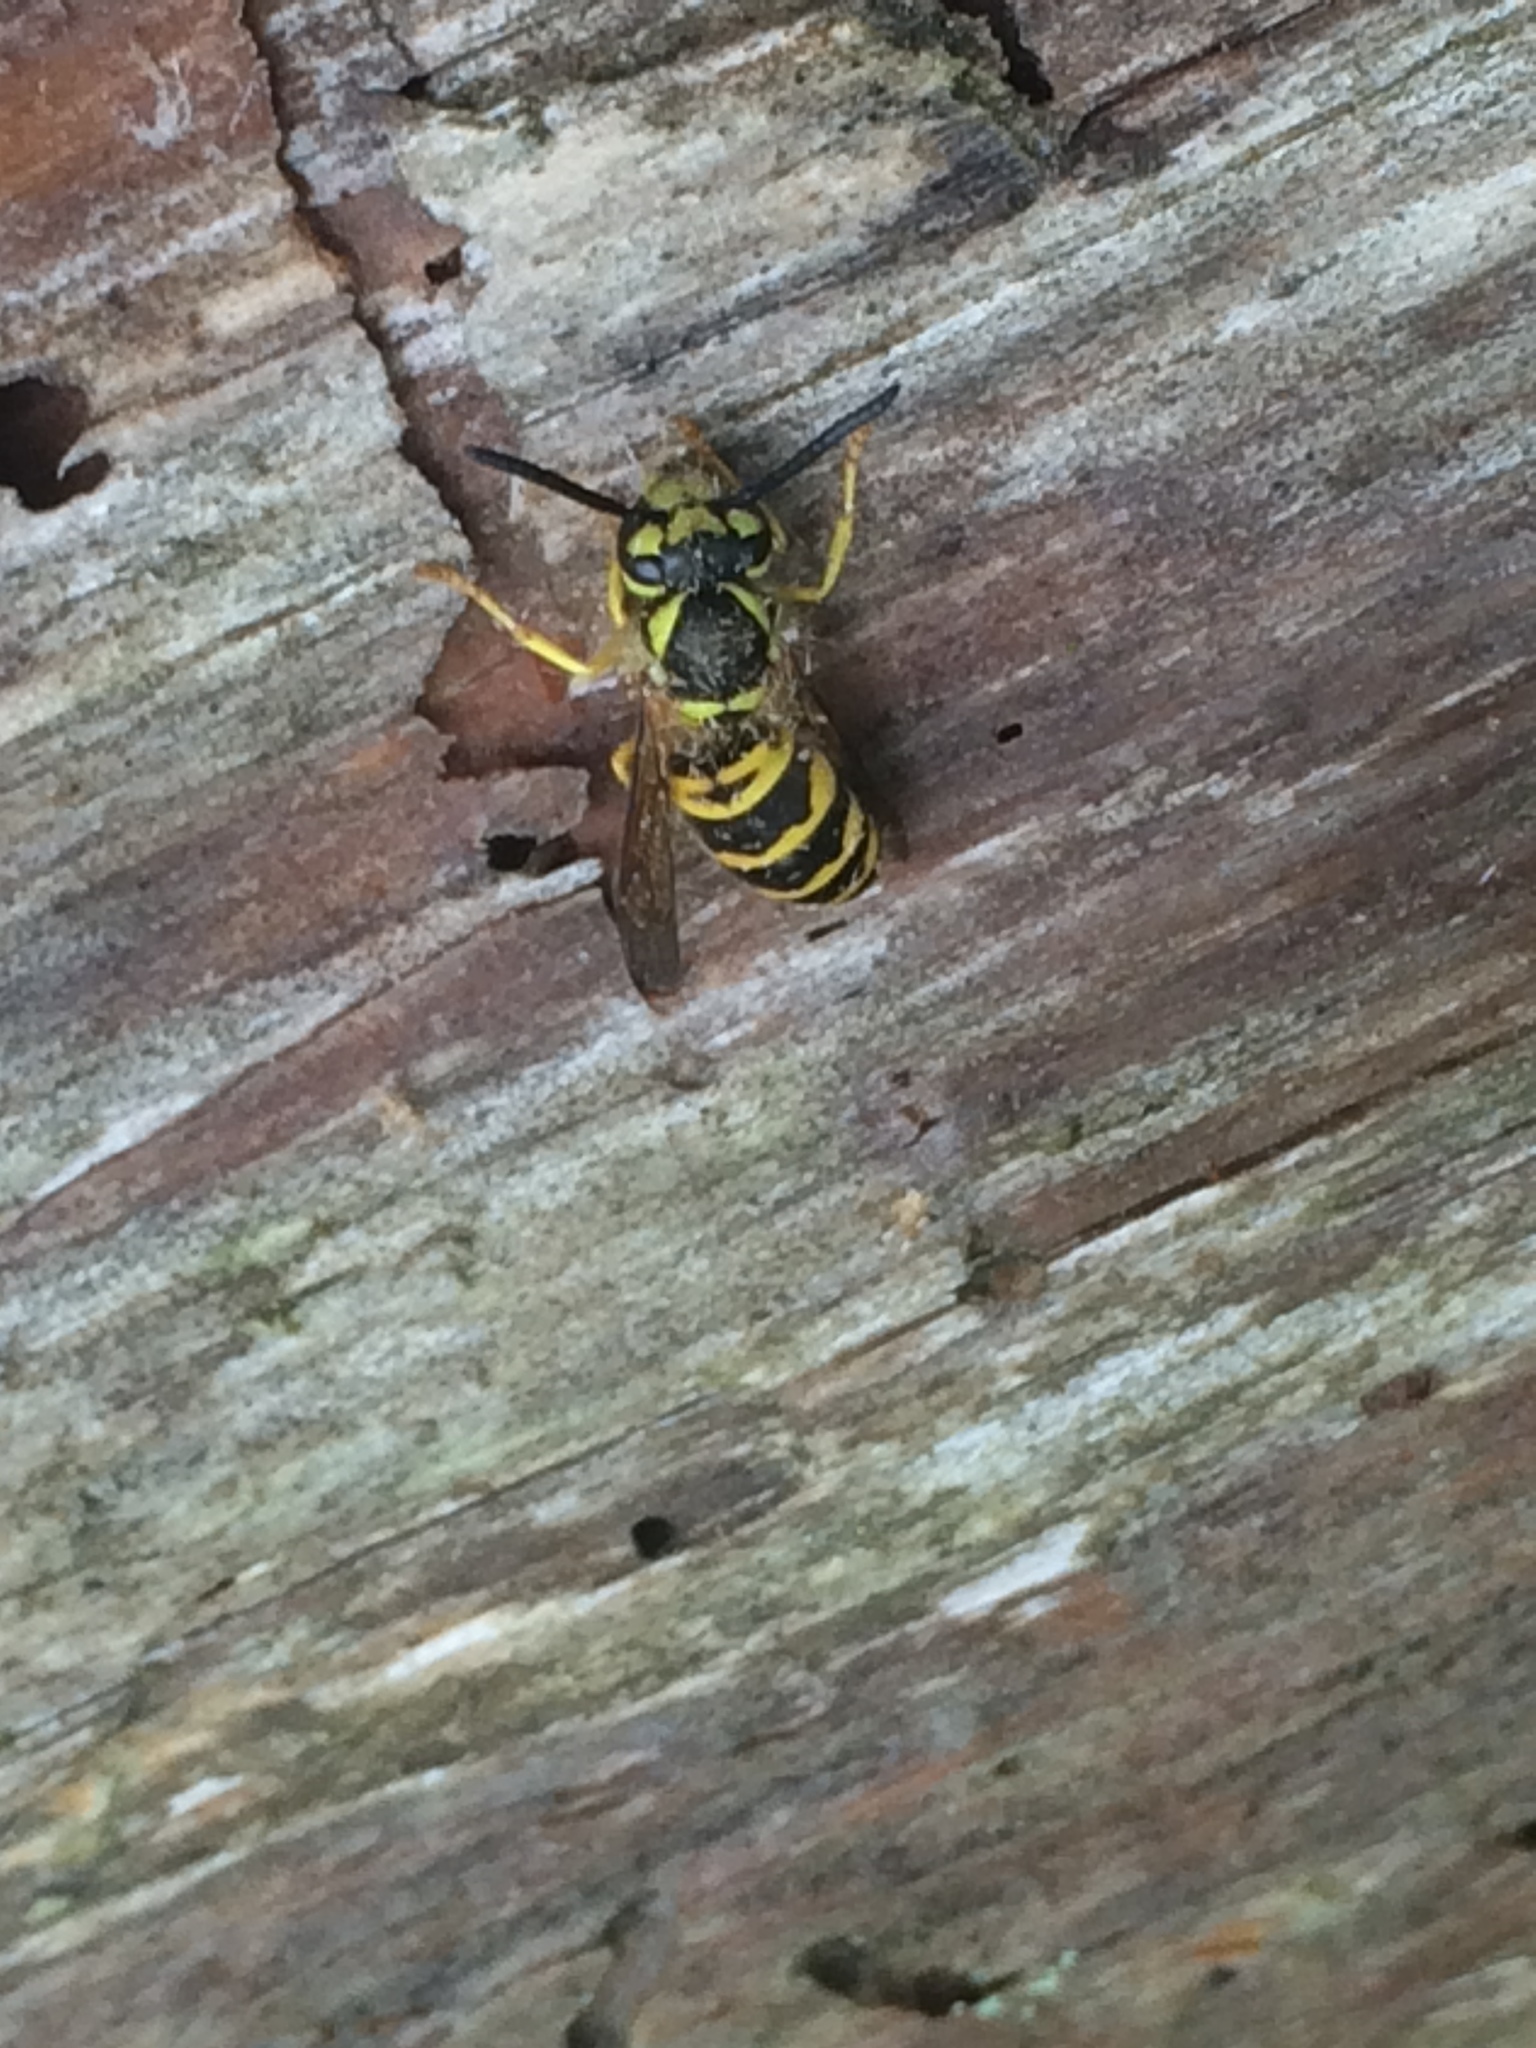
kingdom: Animalia
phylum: Arthropoda
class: Insecta
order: Hymenoptera
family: Vespidae
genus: Vespula
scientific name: Vespula maculifrons
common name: Eastern yellowjacket
